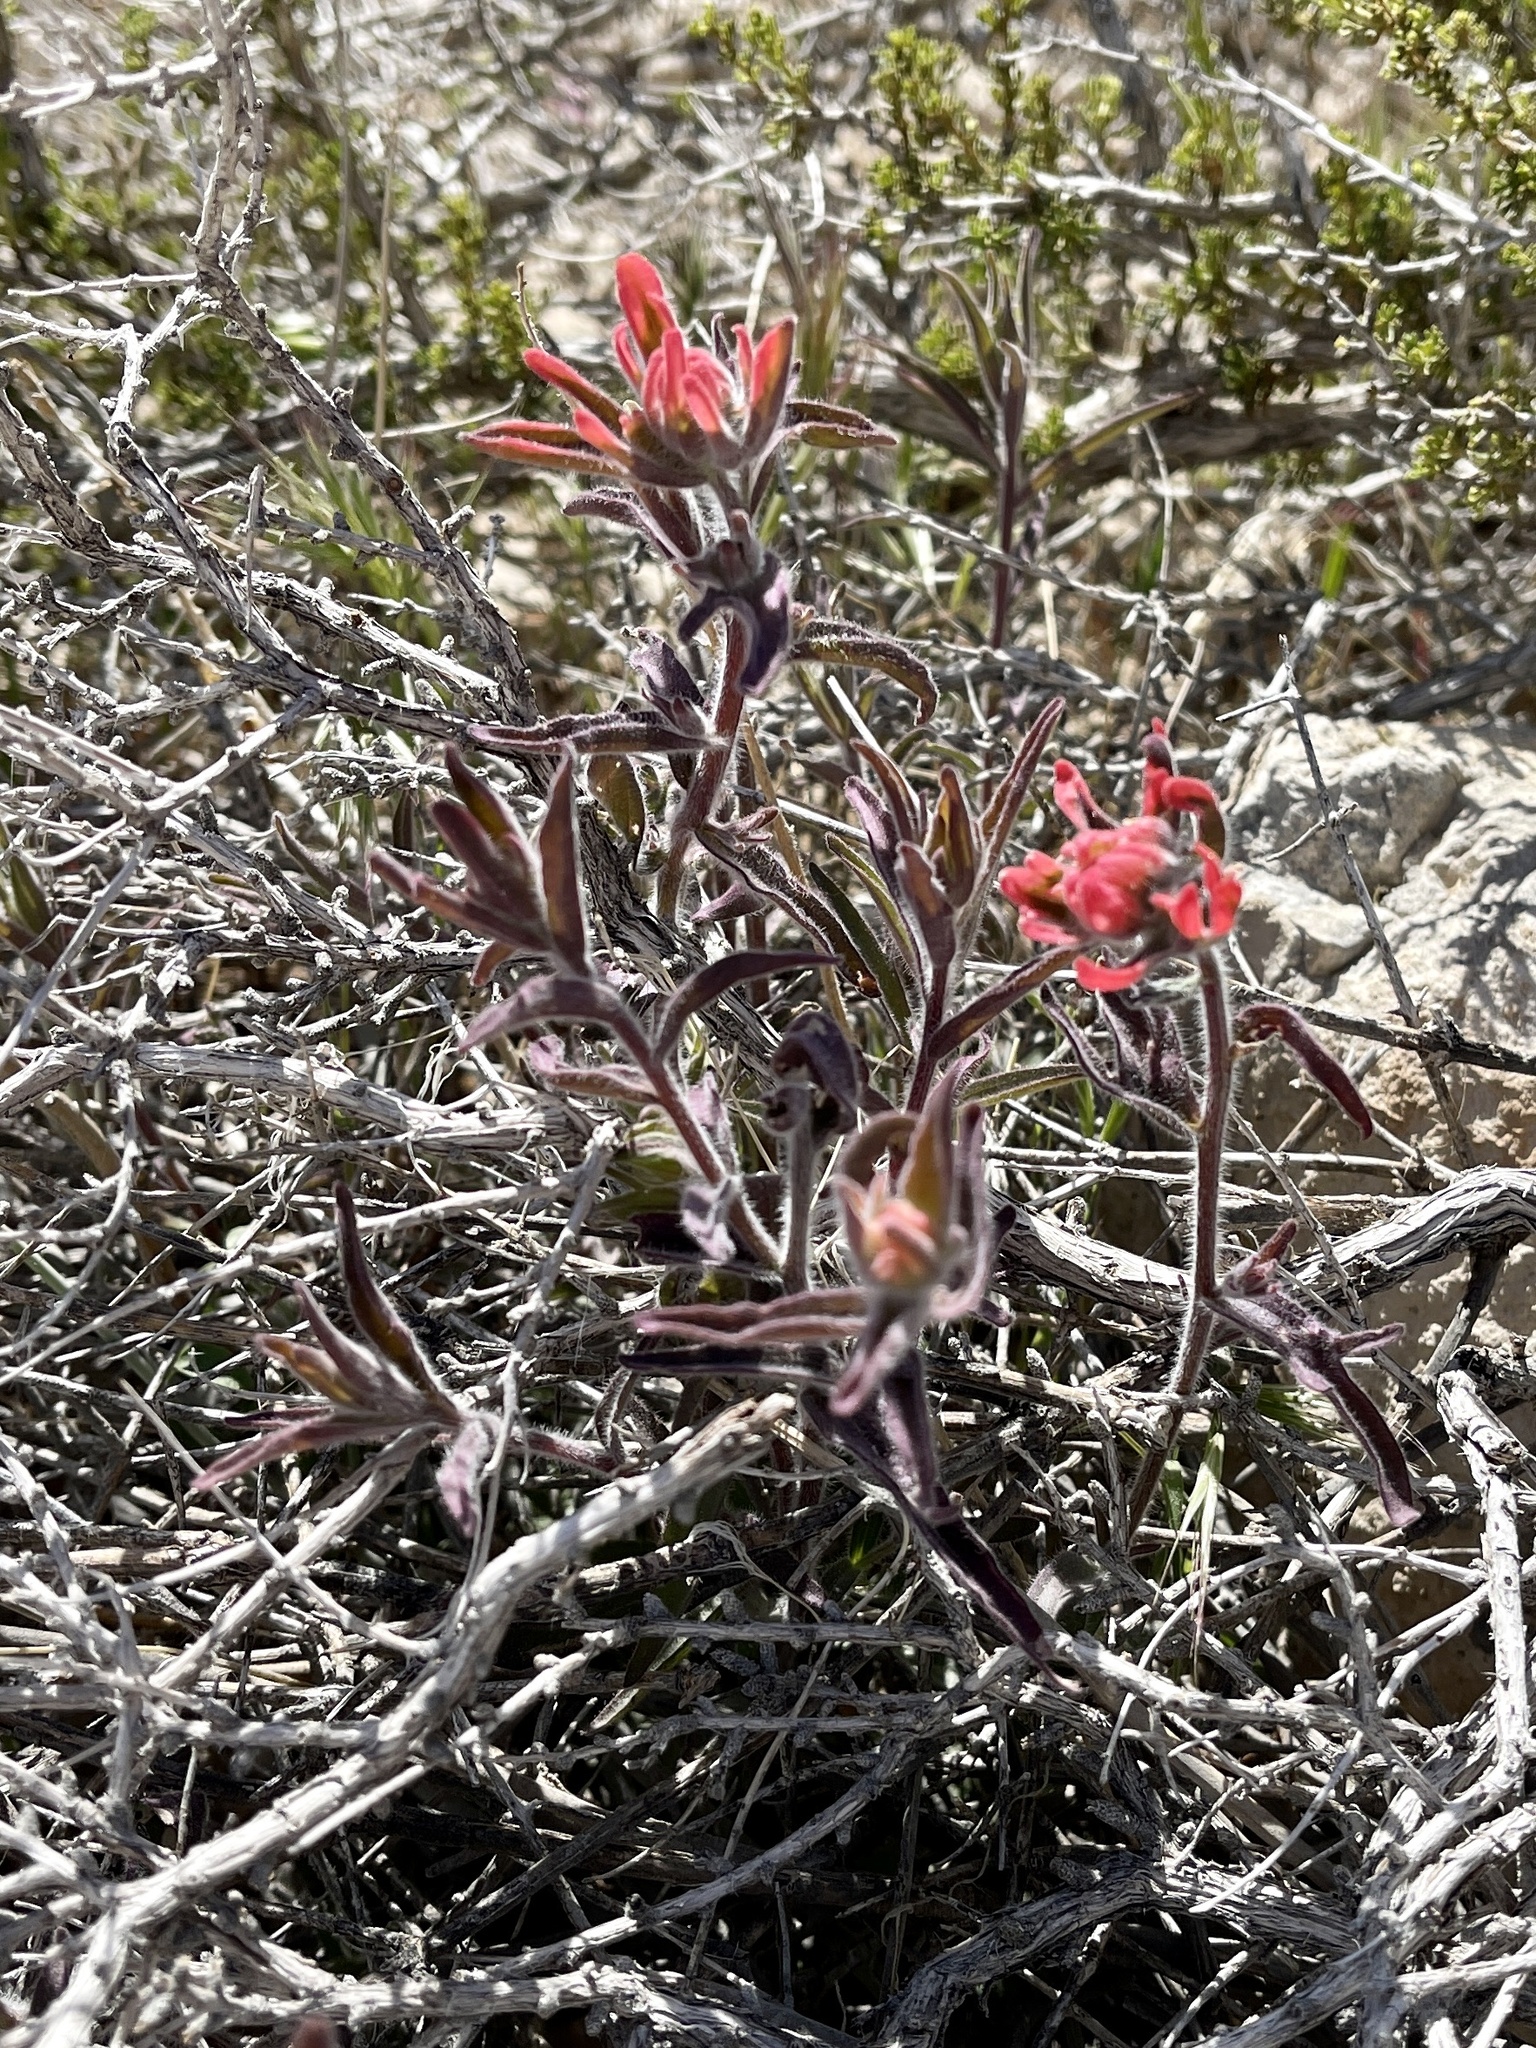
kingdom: Plantae
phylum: Tracheophyta
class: Magnoliopsida
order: Lamiales
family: Orobanchaceae
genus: Castilleja
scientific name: Castilleja chromosa
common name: Desert paintbrush
